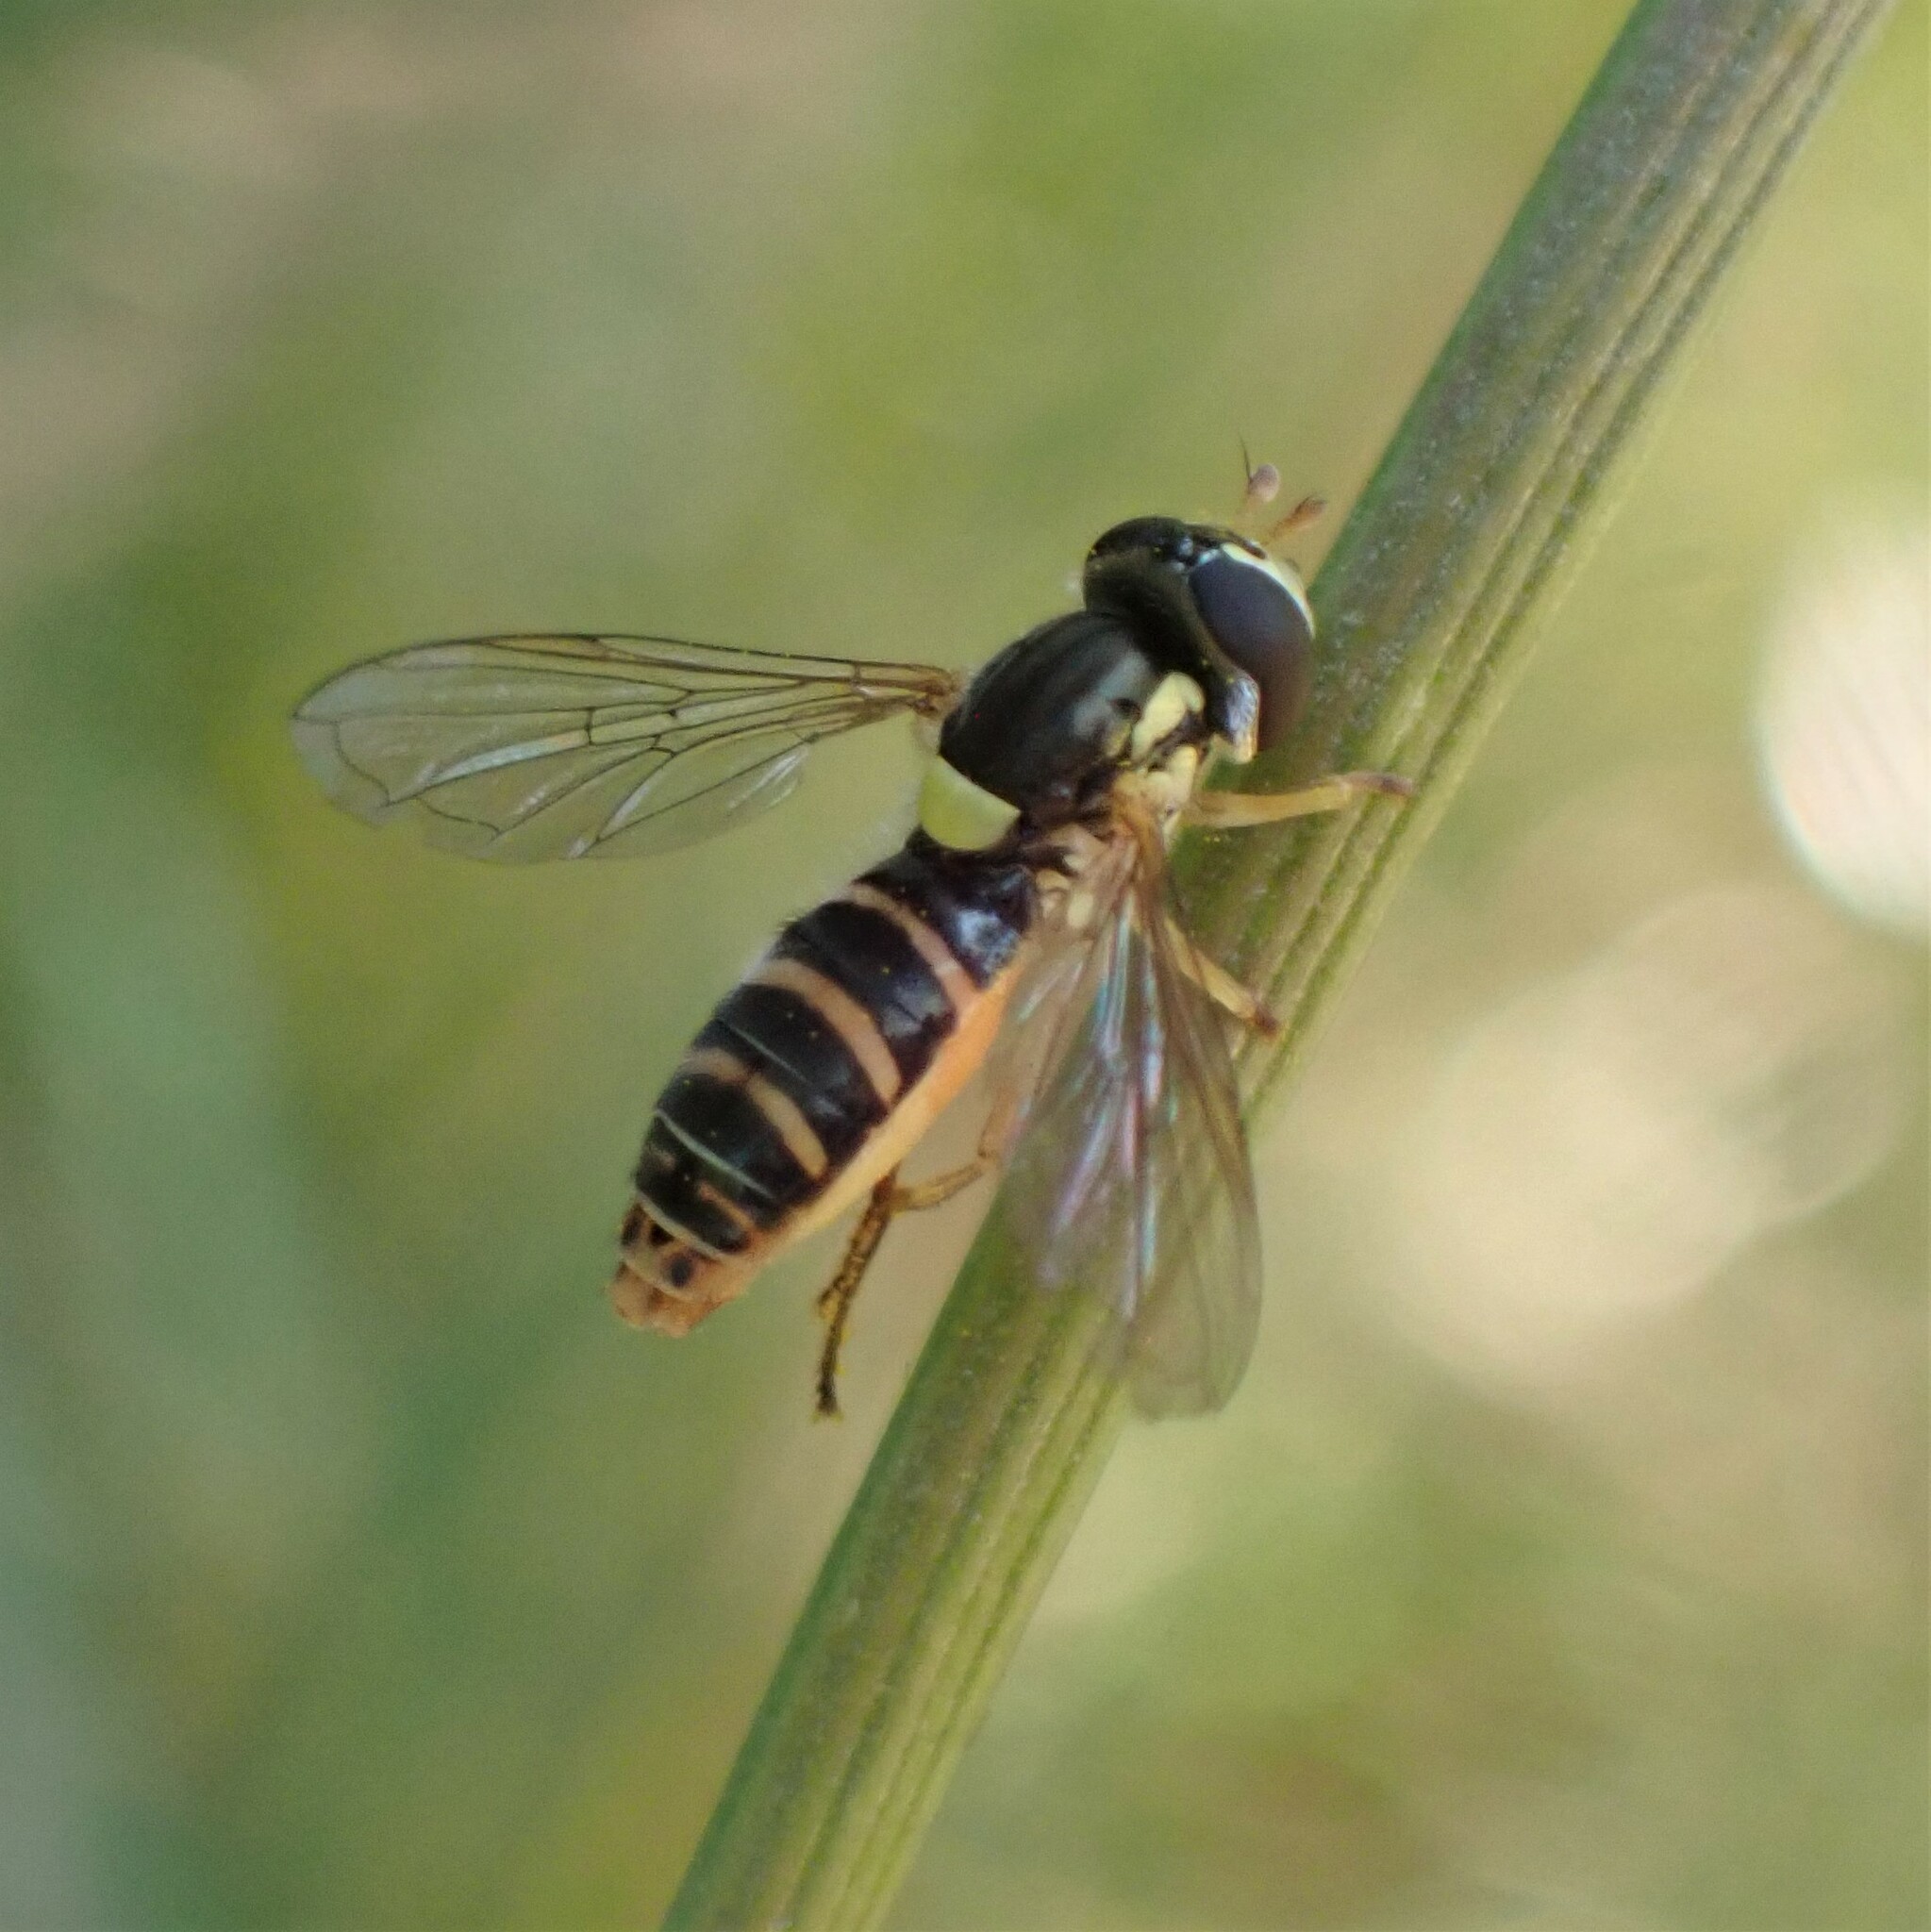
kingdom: Animalia
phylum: Arthropoda
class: Insecta
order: Diptera
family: Syrphidae
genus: Sphaerophoria
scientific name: Sphaerophoria sulphuripes
